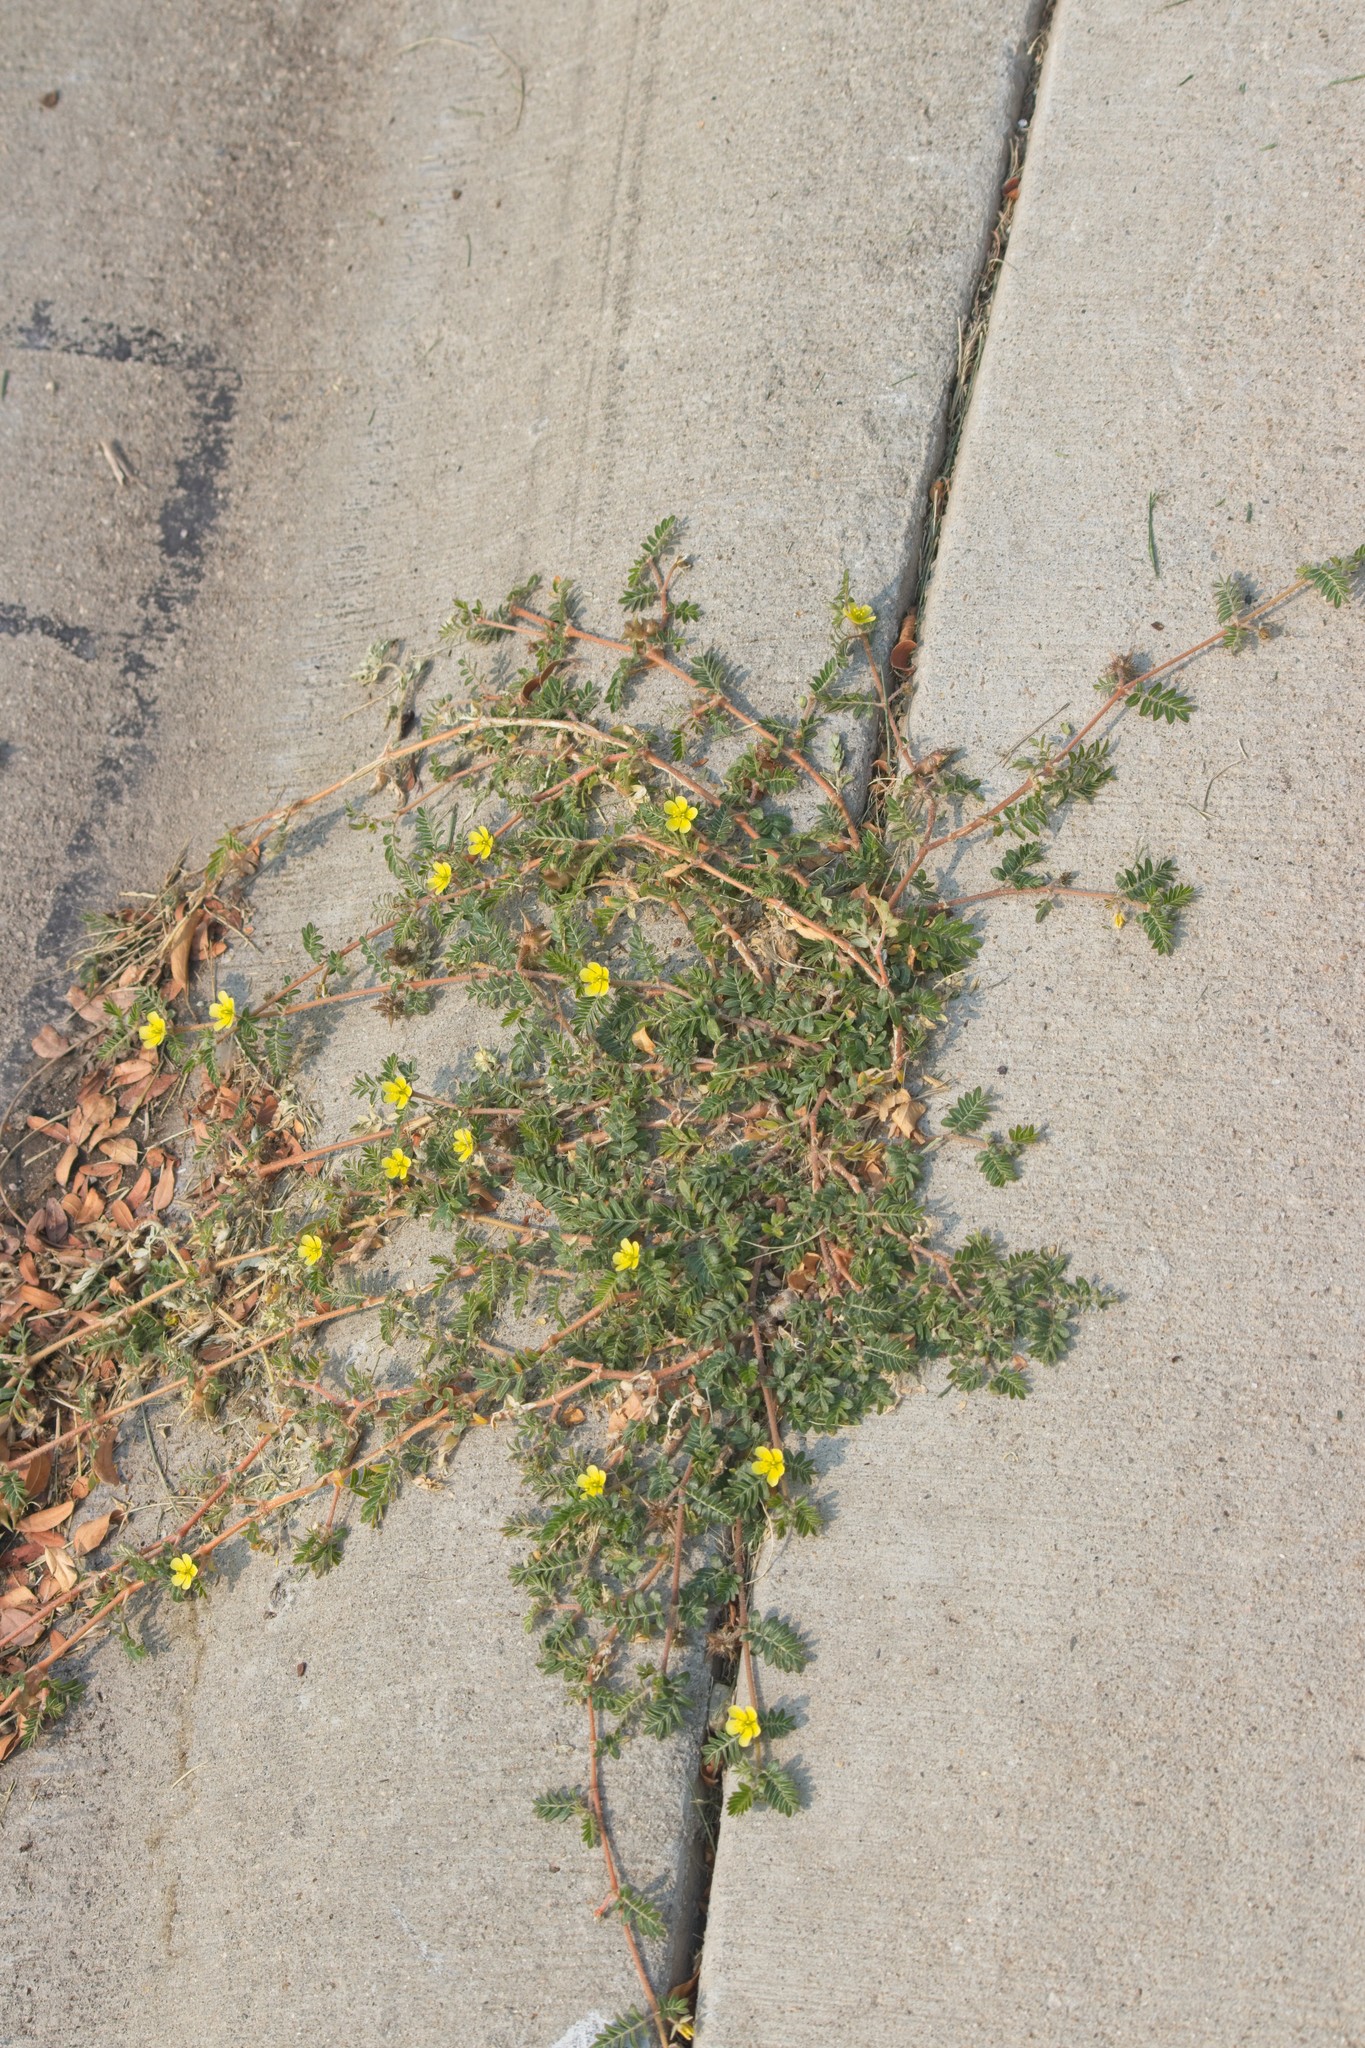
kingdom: Plantae
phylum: Tracheophyta
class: Magnoliopsida
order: Zygophyllales
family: Zygophyllaceae
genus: Tribulus
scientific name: Tribulus terrestris
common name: Puncturevine
